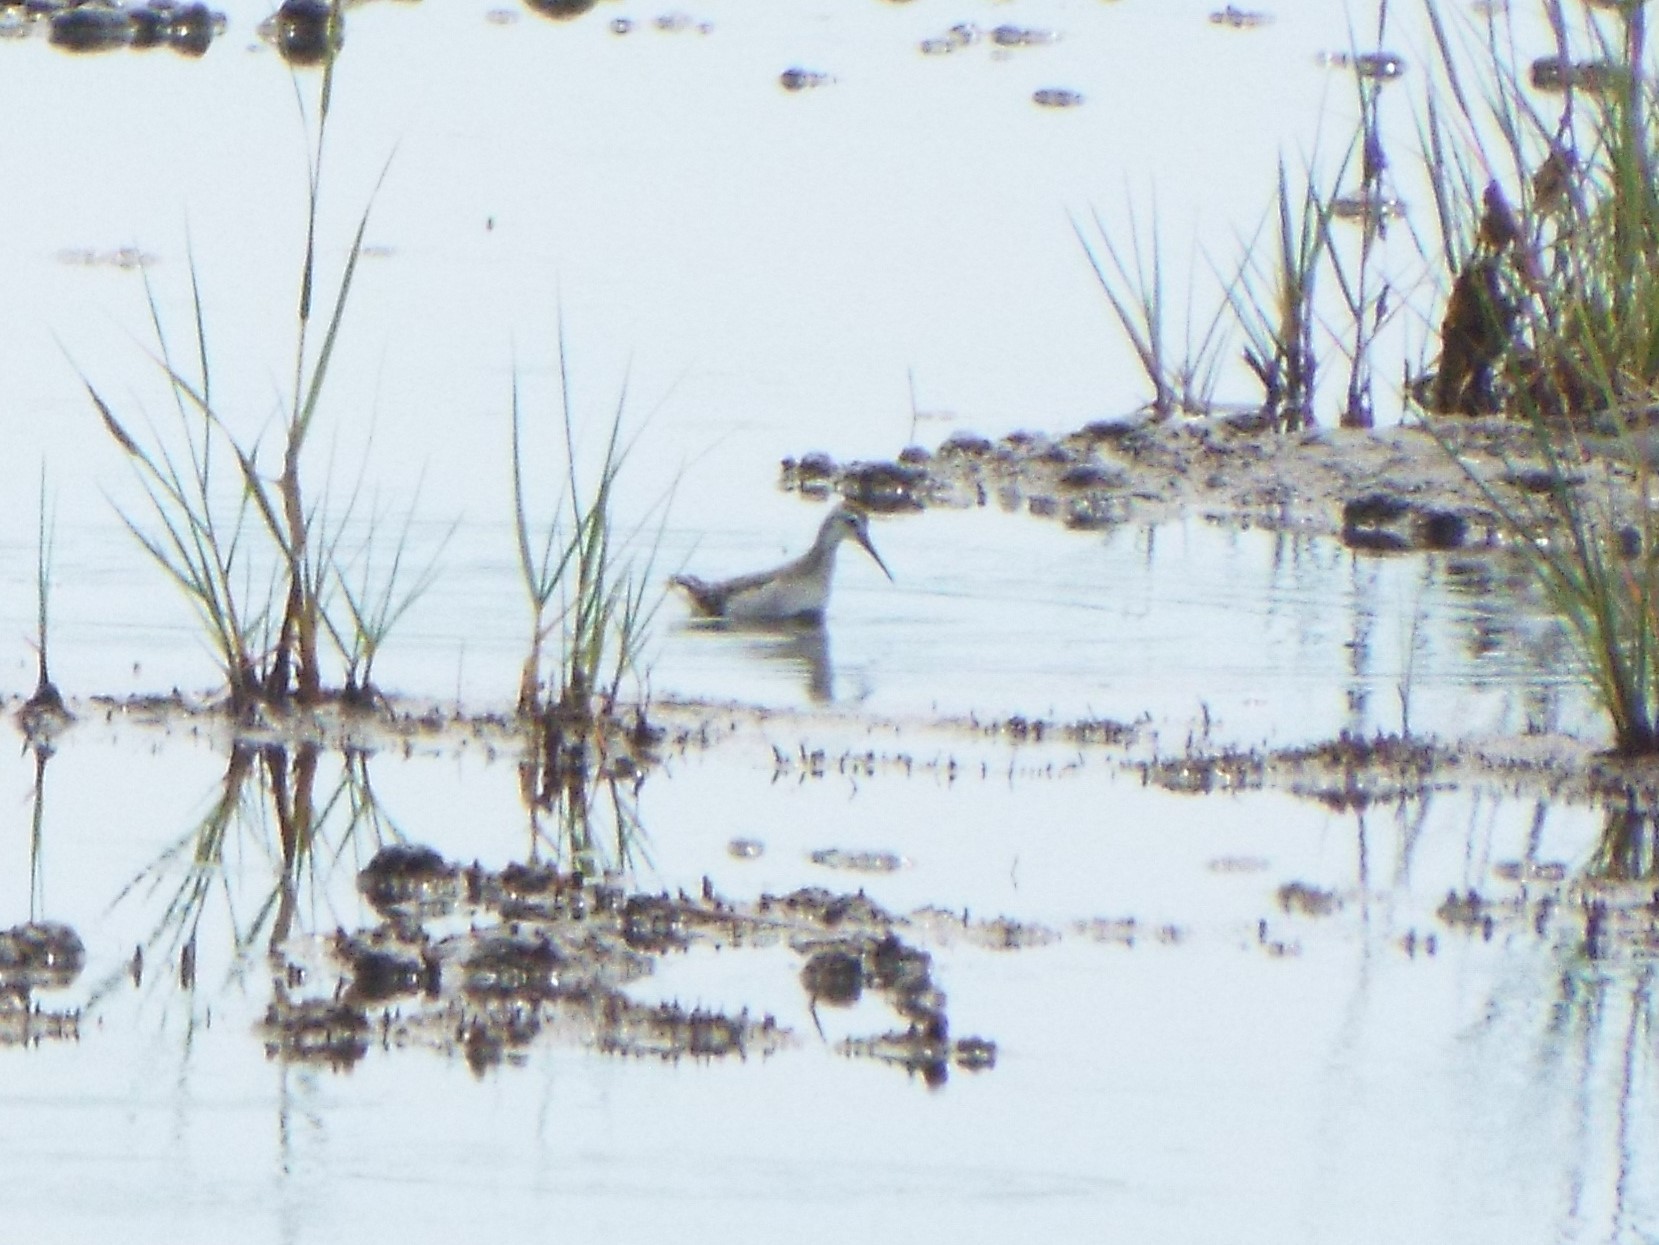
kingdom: Animalia
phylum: Chordata
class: Aves
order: Charadriiformes
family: Scolopacidae
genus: Phalaropus
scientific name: Phalaropus tricolor
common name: Wilson's phalarope
